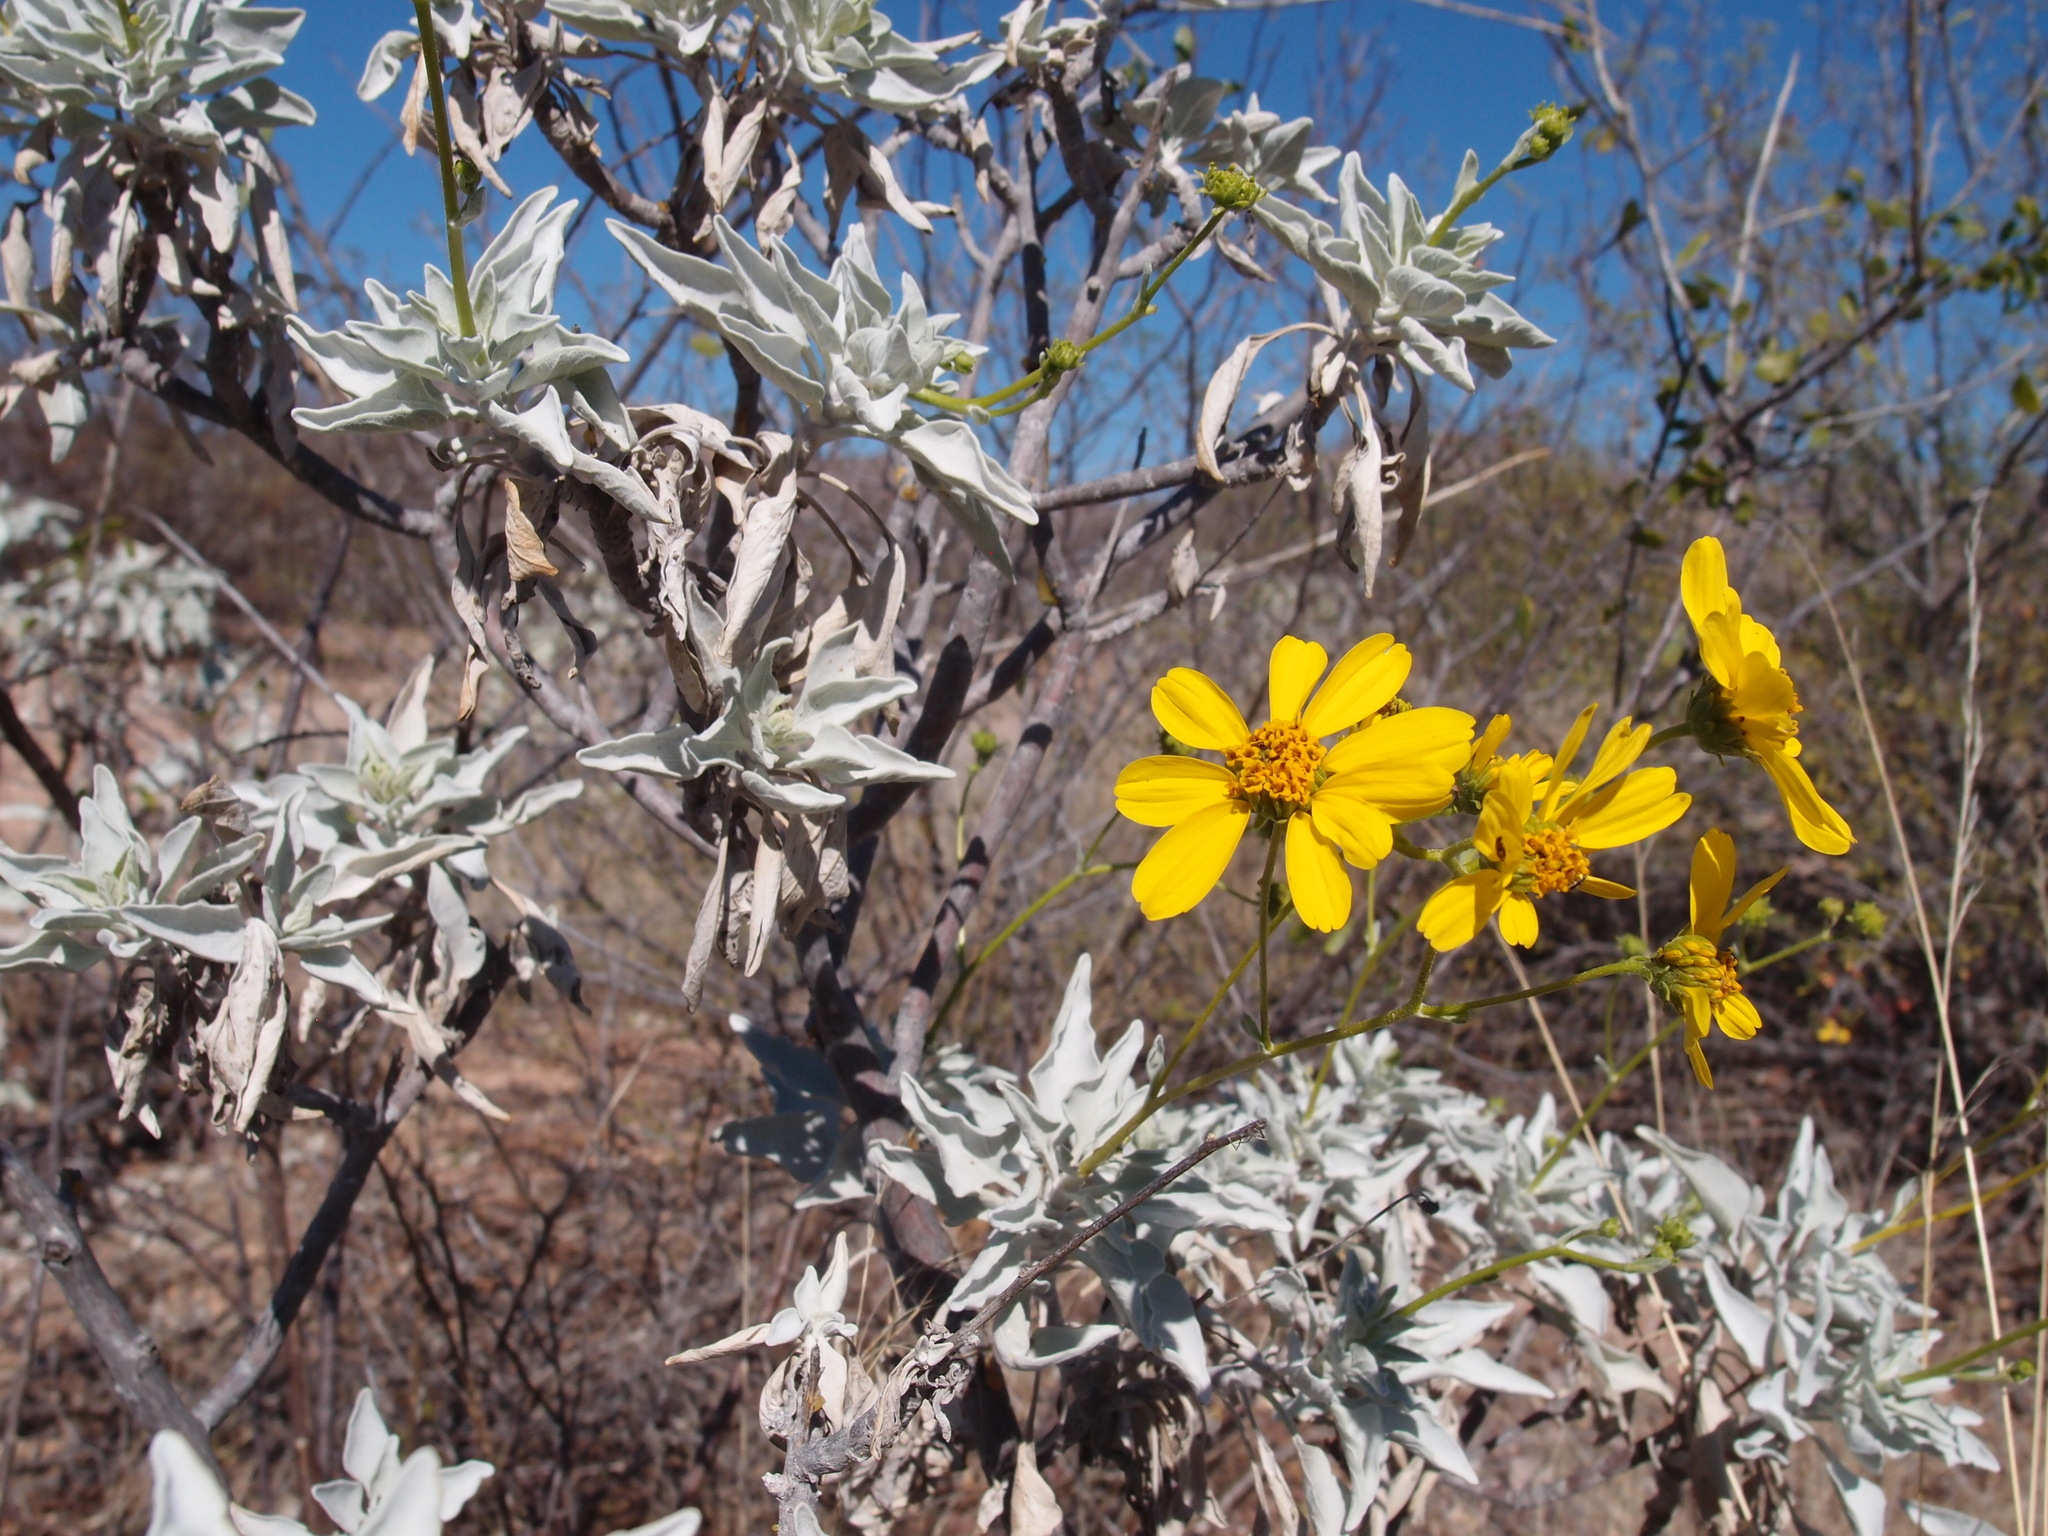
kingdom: Plantae
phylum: Tracheophyta
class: Magnoliopsida
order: Asterales
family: Asteraceae
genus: Encelia
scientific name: Encelia farinosa
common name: Brittlebush
